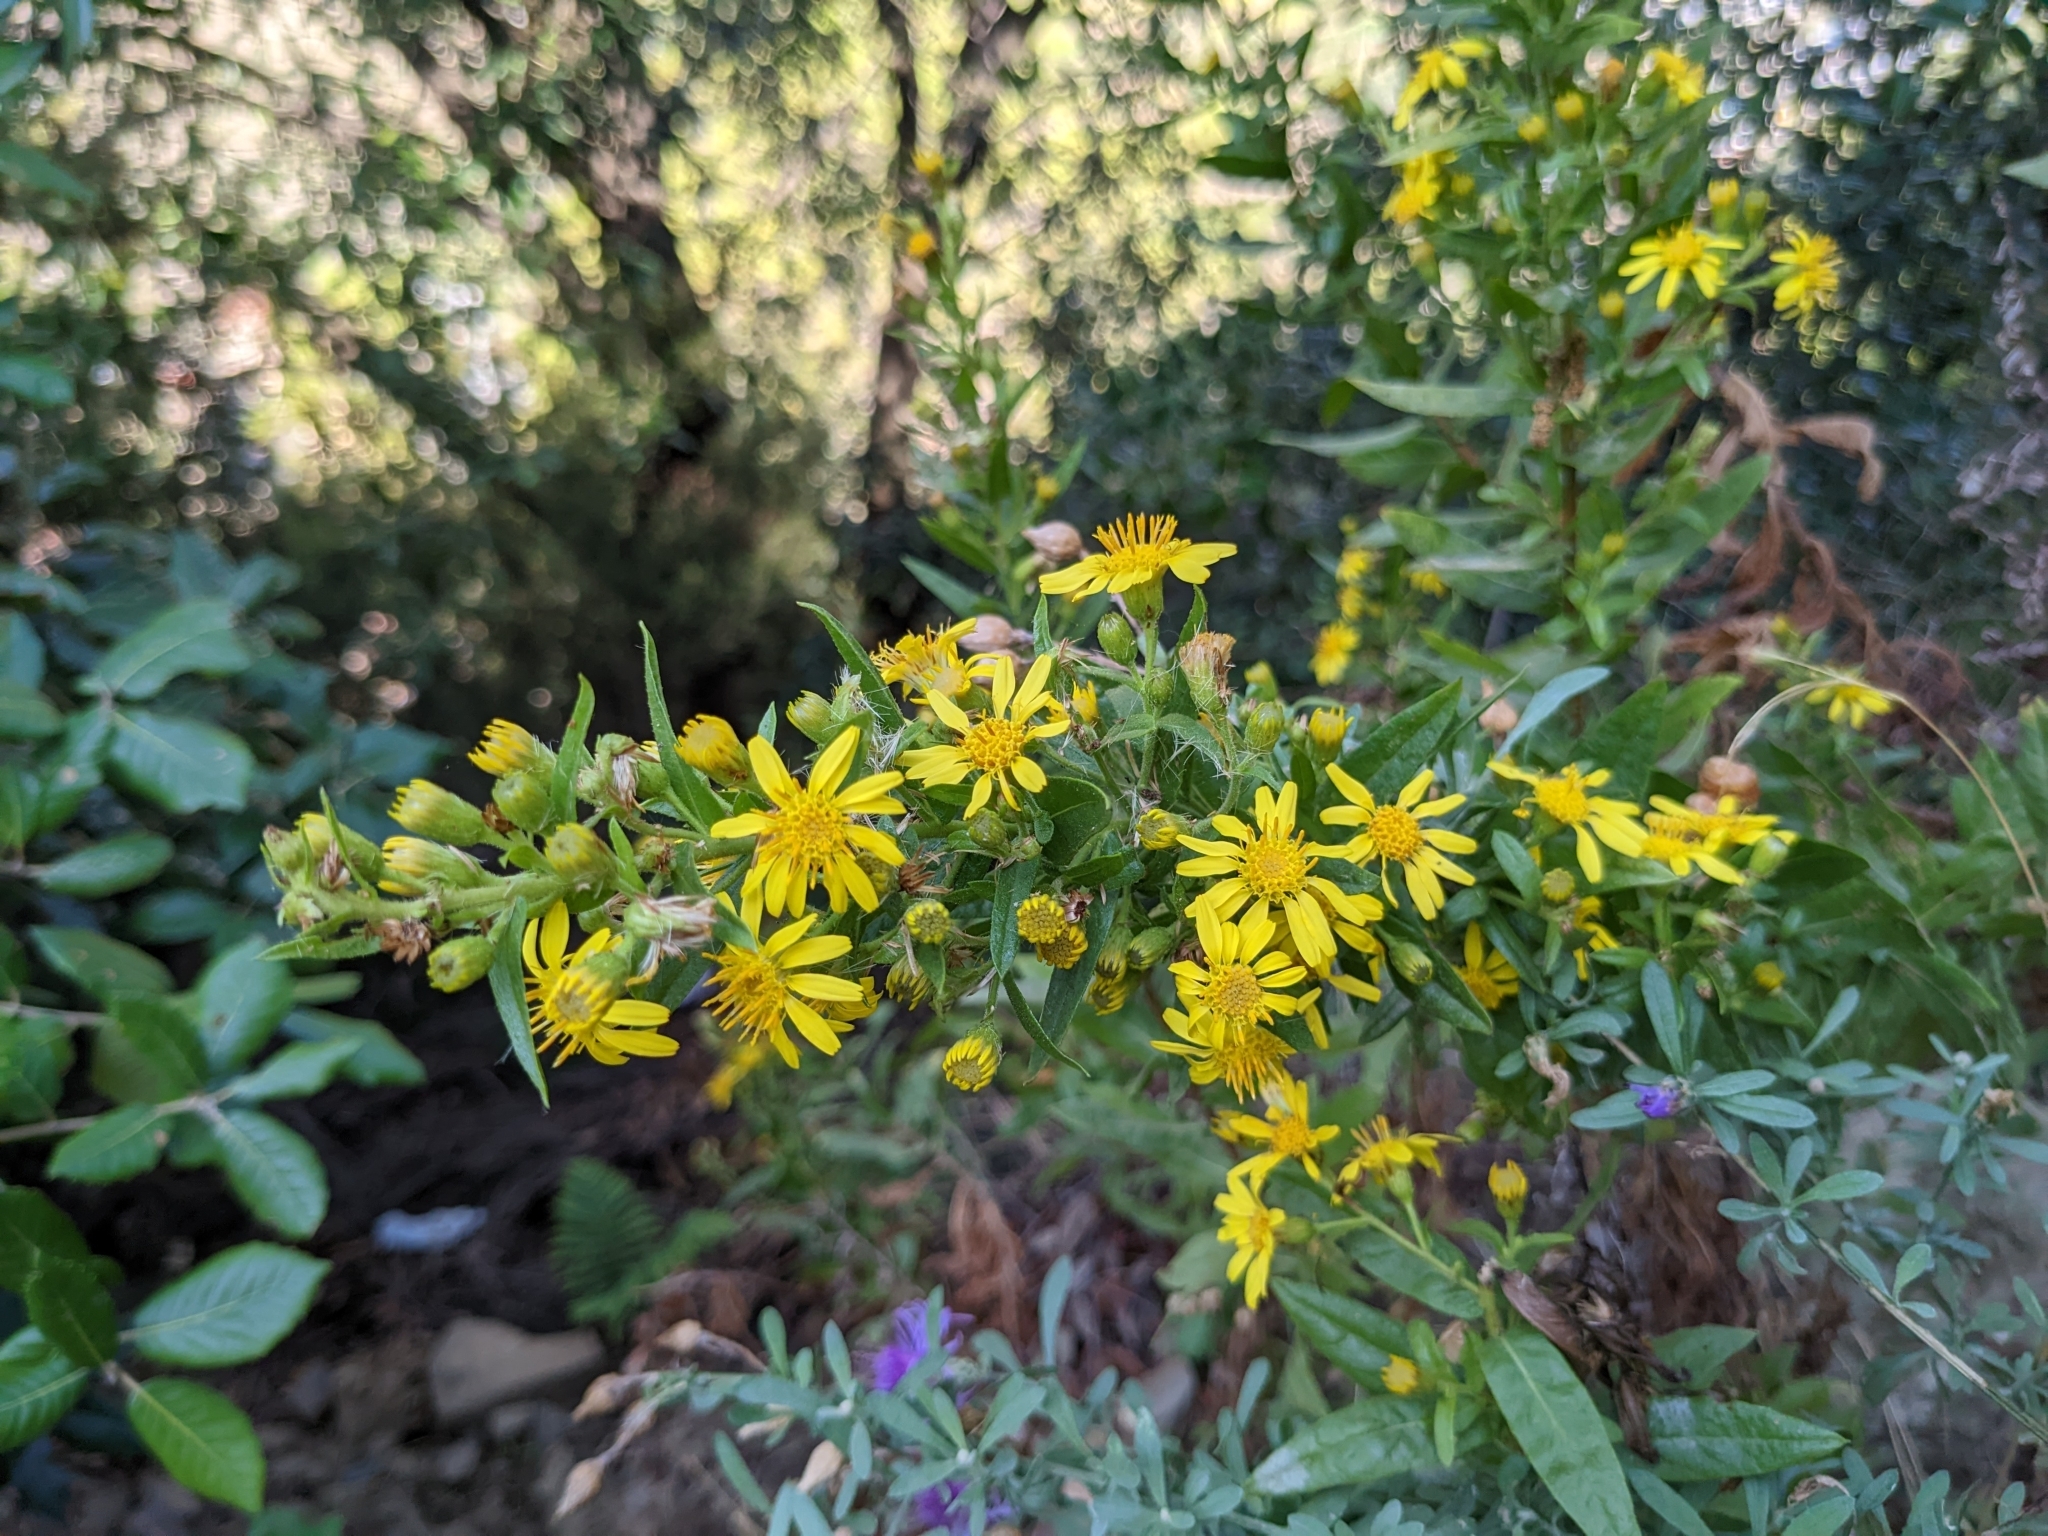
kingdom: Plantae
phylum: Tracheophyta
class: Magnoliopsida
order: Asterales
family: Asteraceae
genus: Dittrichia
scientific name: Dittrichia viscosa
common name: Woody fleabane
